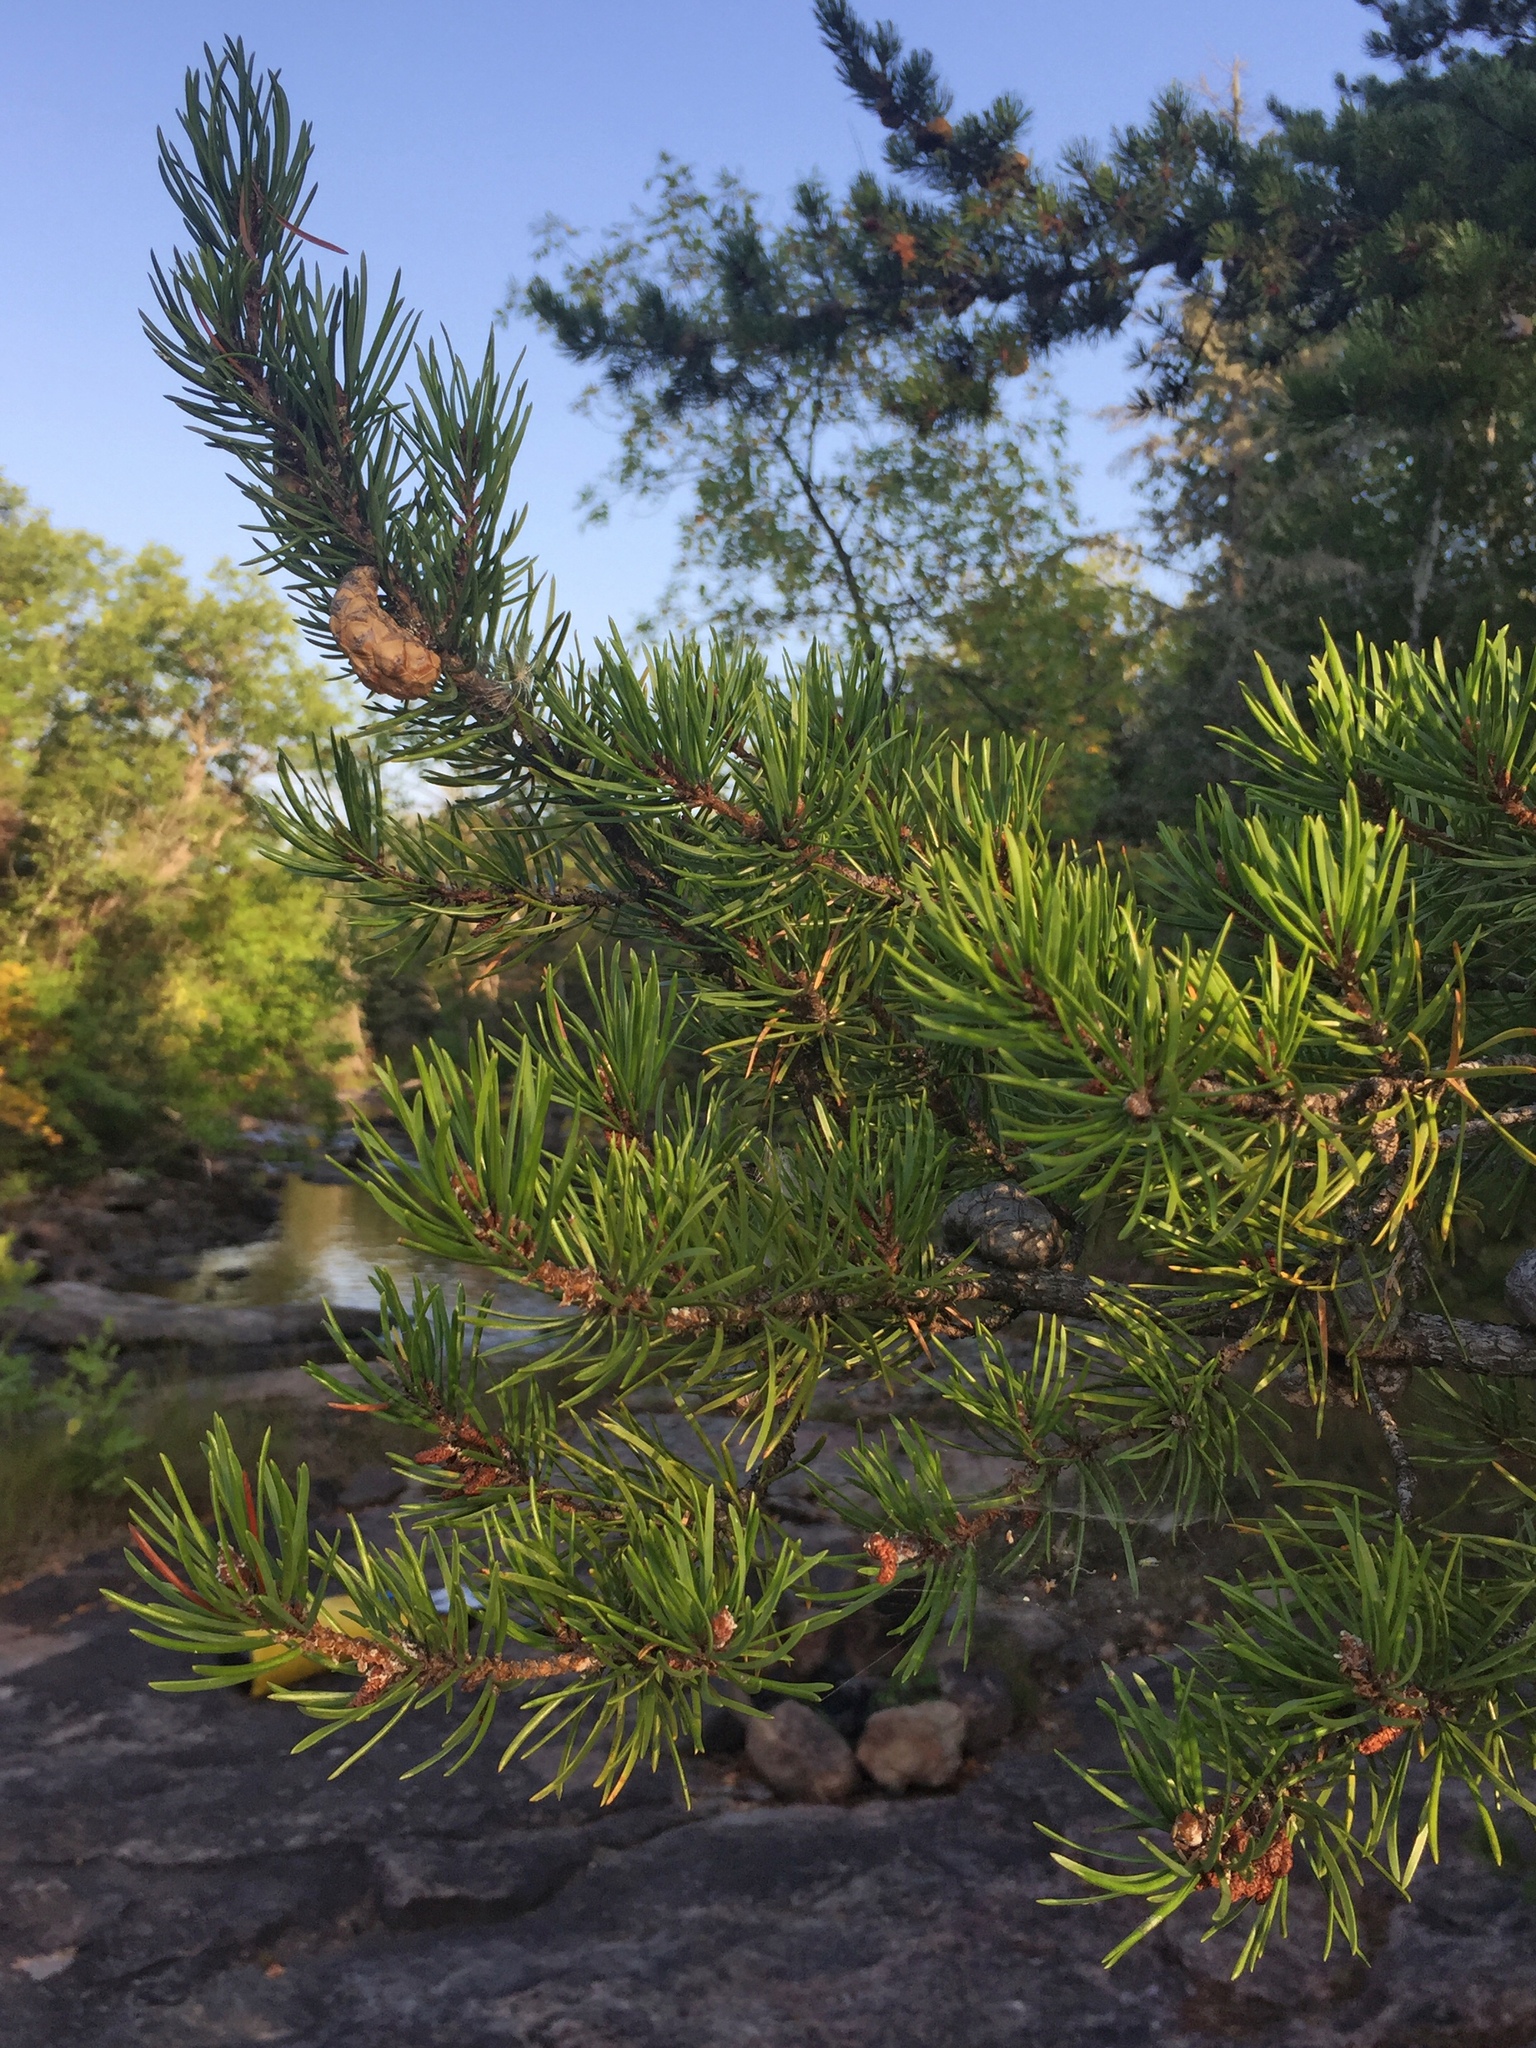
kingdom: Plantae
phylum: Tracheophyta
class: Pinopsida
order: Pinales
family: Pinaceae
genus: Pinus
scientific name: Pinus banksiana
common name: Jack pine
